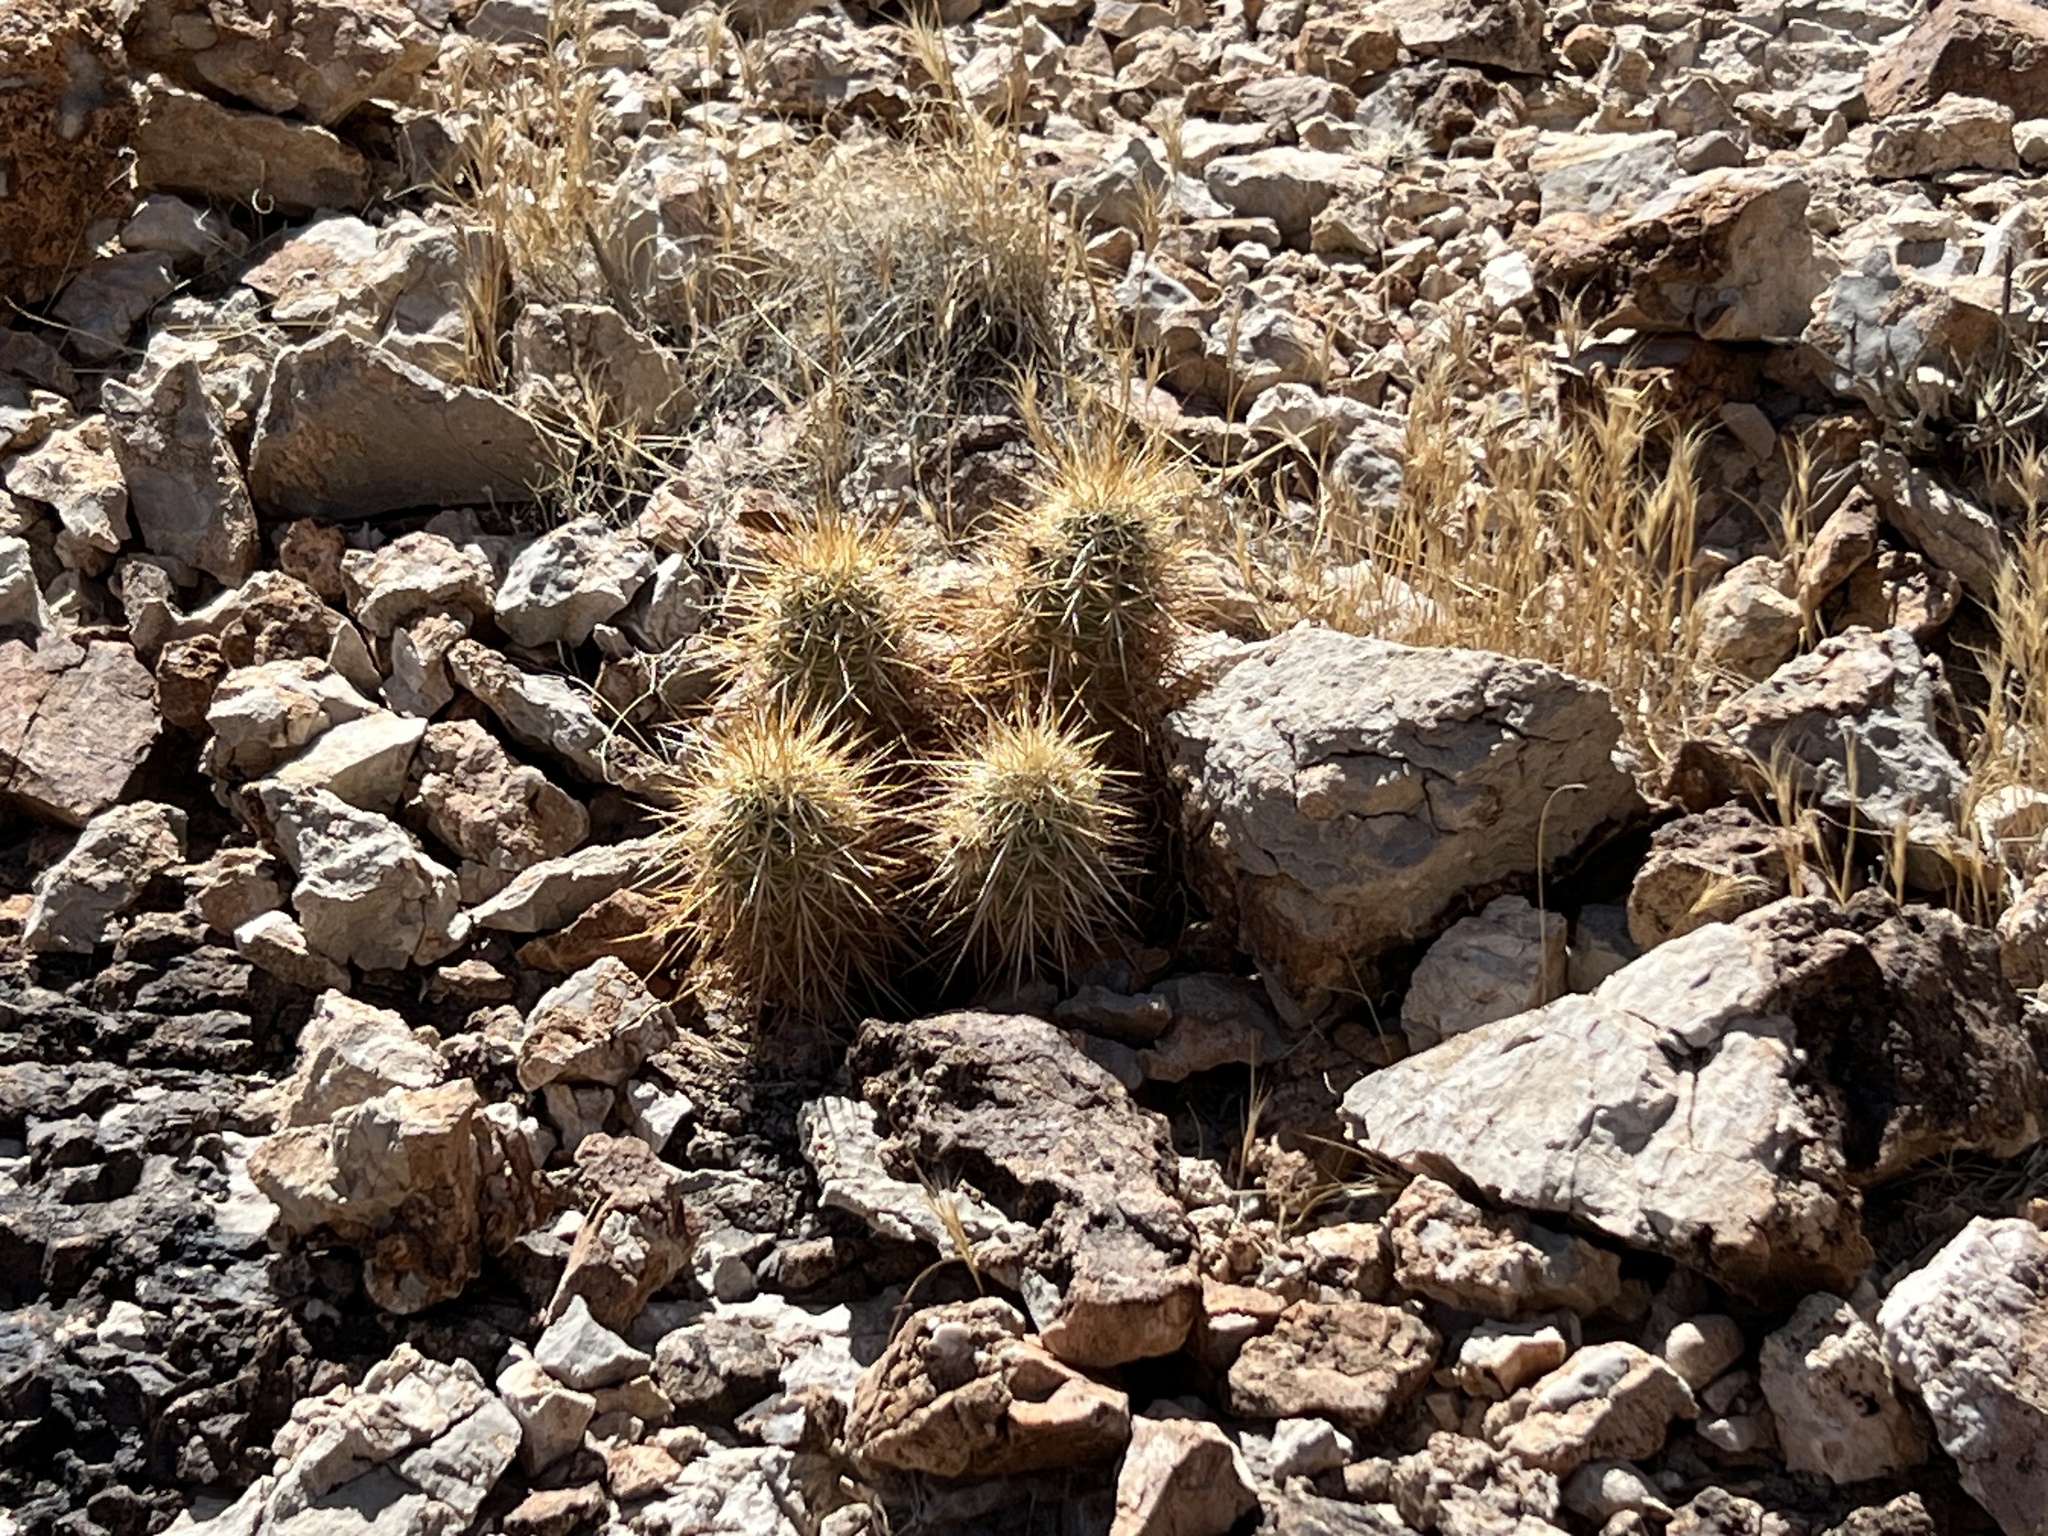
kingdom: Plantae
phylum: Tracheophyta
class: Magnoliopsida
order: Caryophyllales
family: Cactaceae
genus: Echinocereus
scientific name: Echinocereus engelmannii
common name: Engelmann's hedgehog cactus
